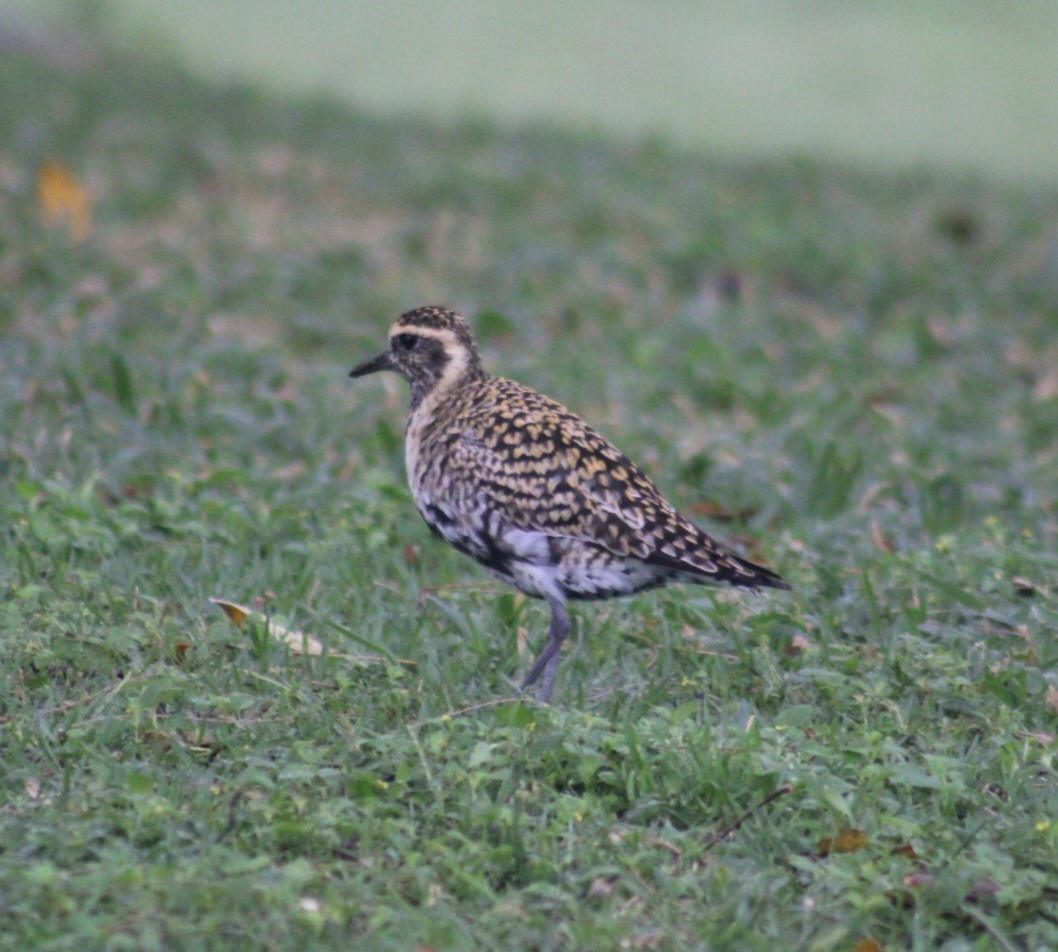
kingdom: Animalia
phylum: Chordata
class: Aves
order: Charadriiformes
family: Charadriidae
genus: Pluvialis
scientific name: Pluvialis fulva
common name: Pacific golden plover
